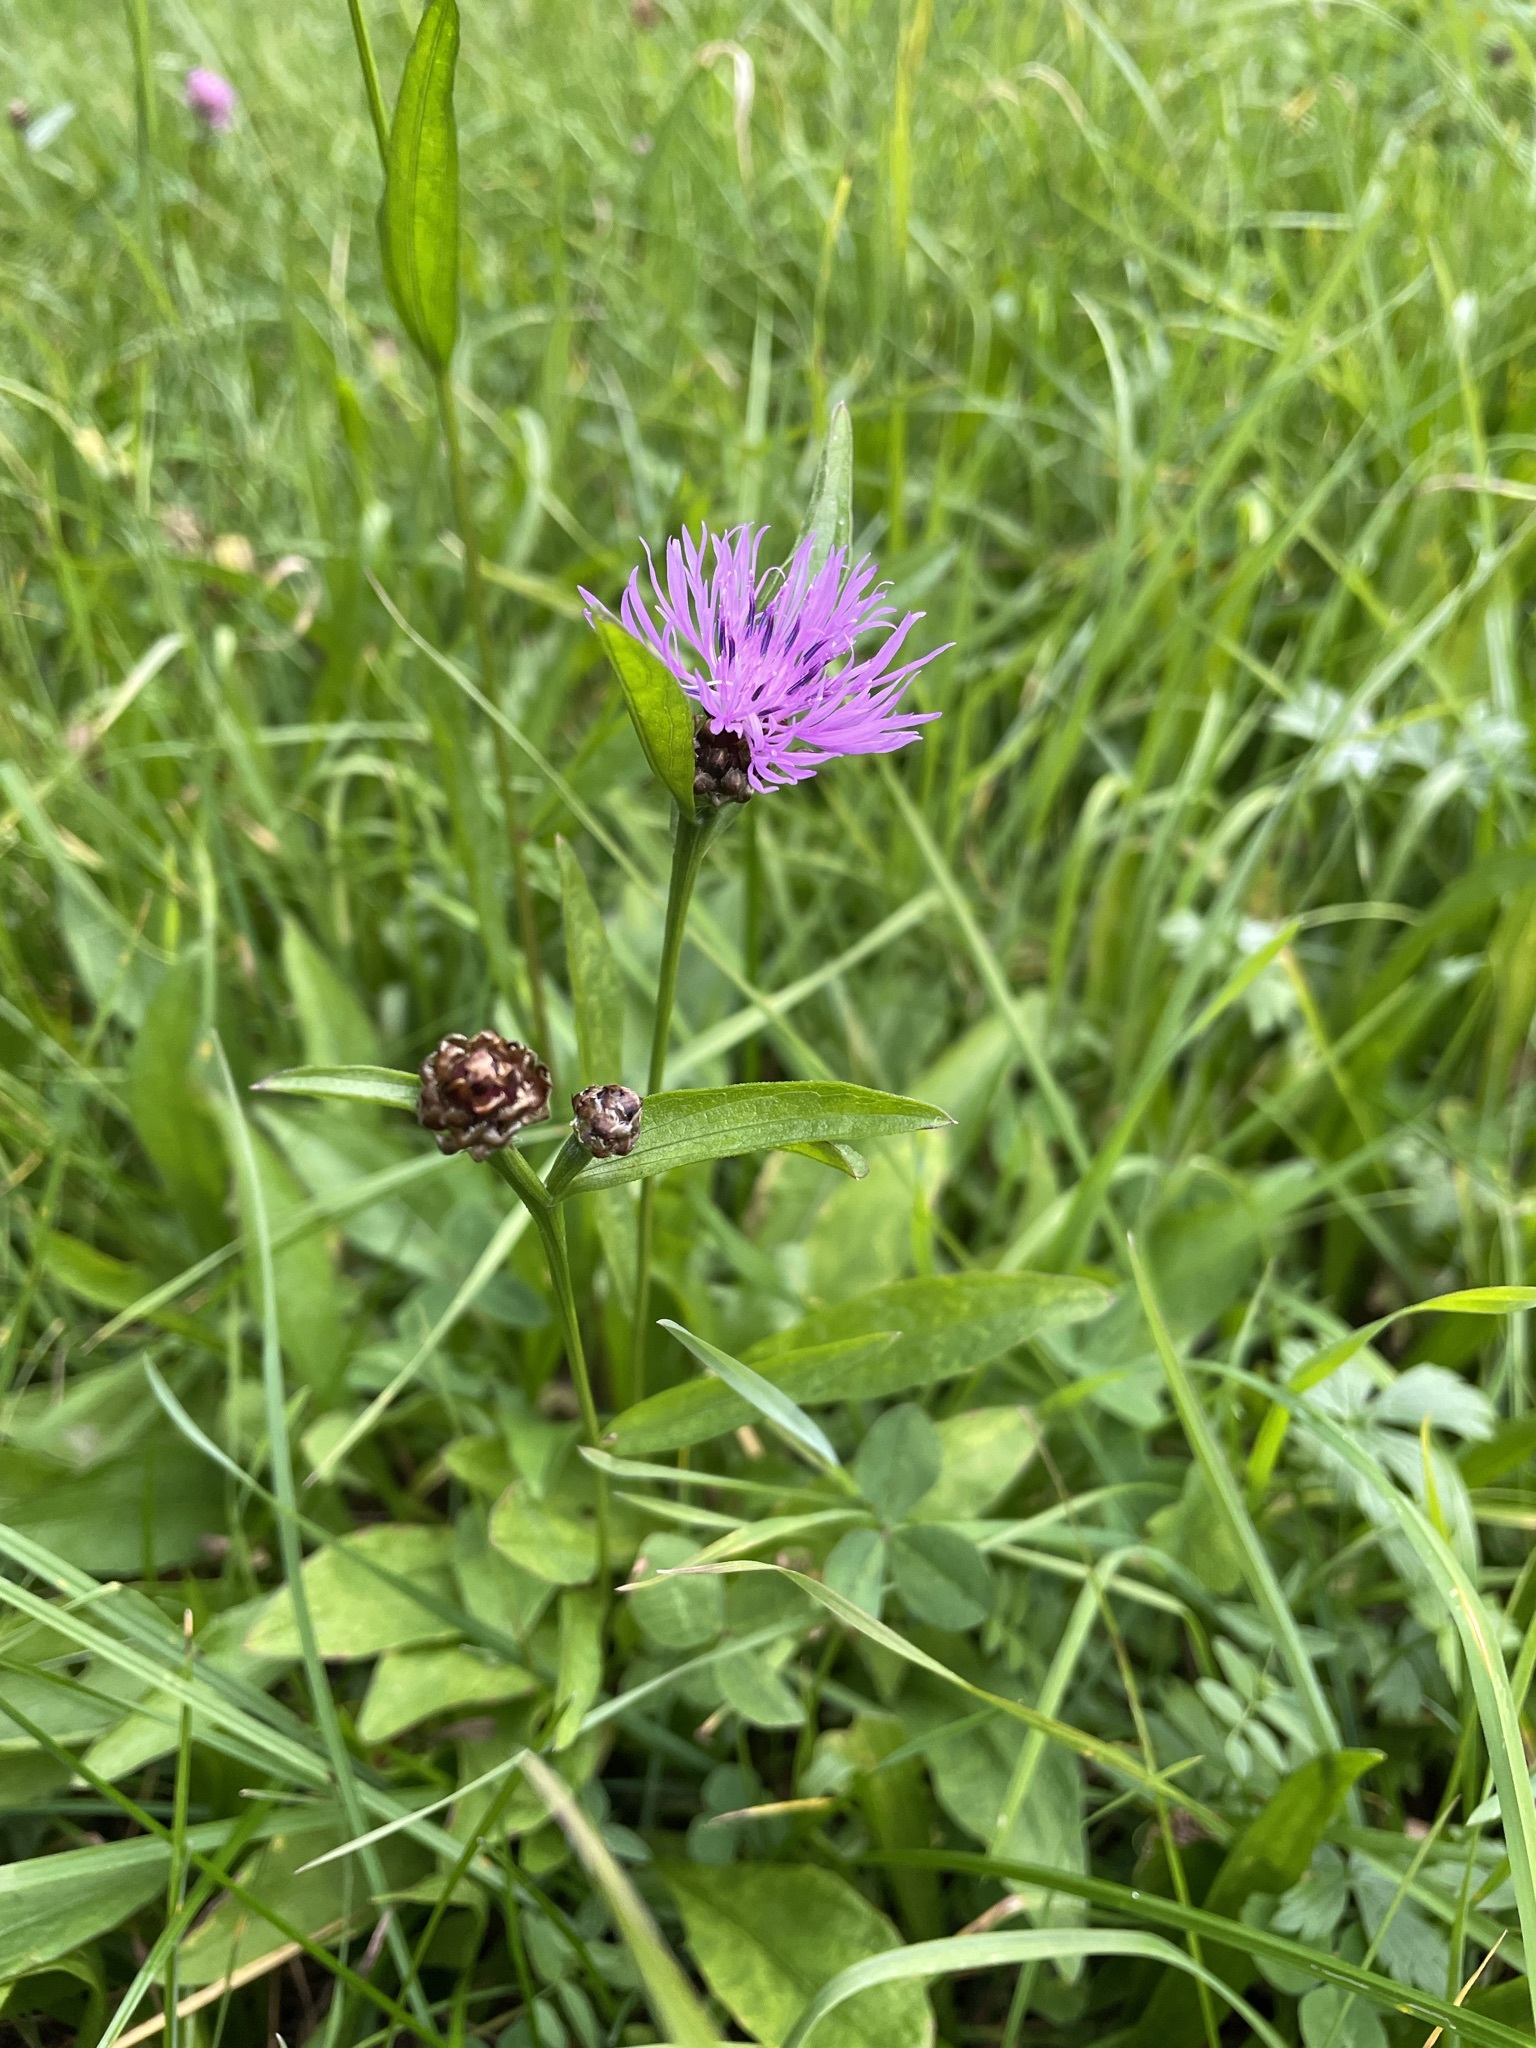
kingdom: Plantae
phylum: Tracheophyta
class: Magnoliopsida
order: Asterales
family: Asteraceae
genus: Centaurea
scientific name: Centaurea jacea
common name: Brown knapweed
